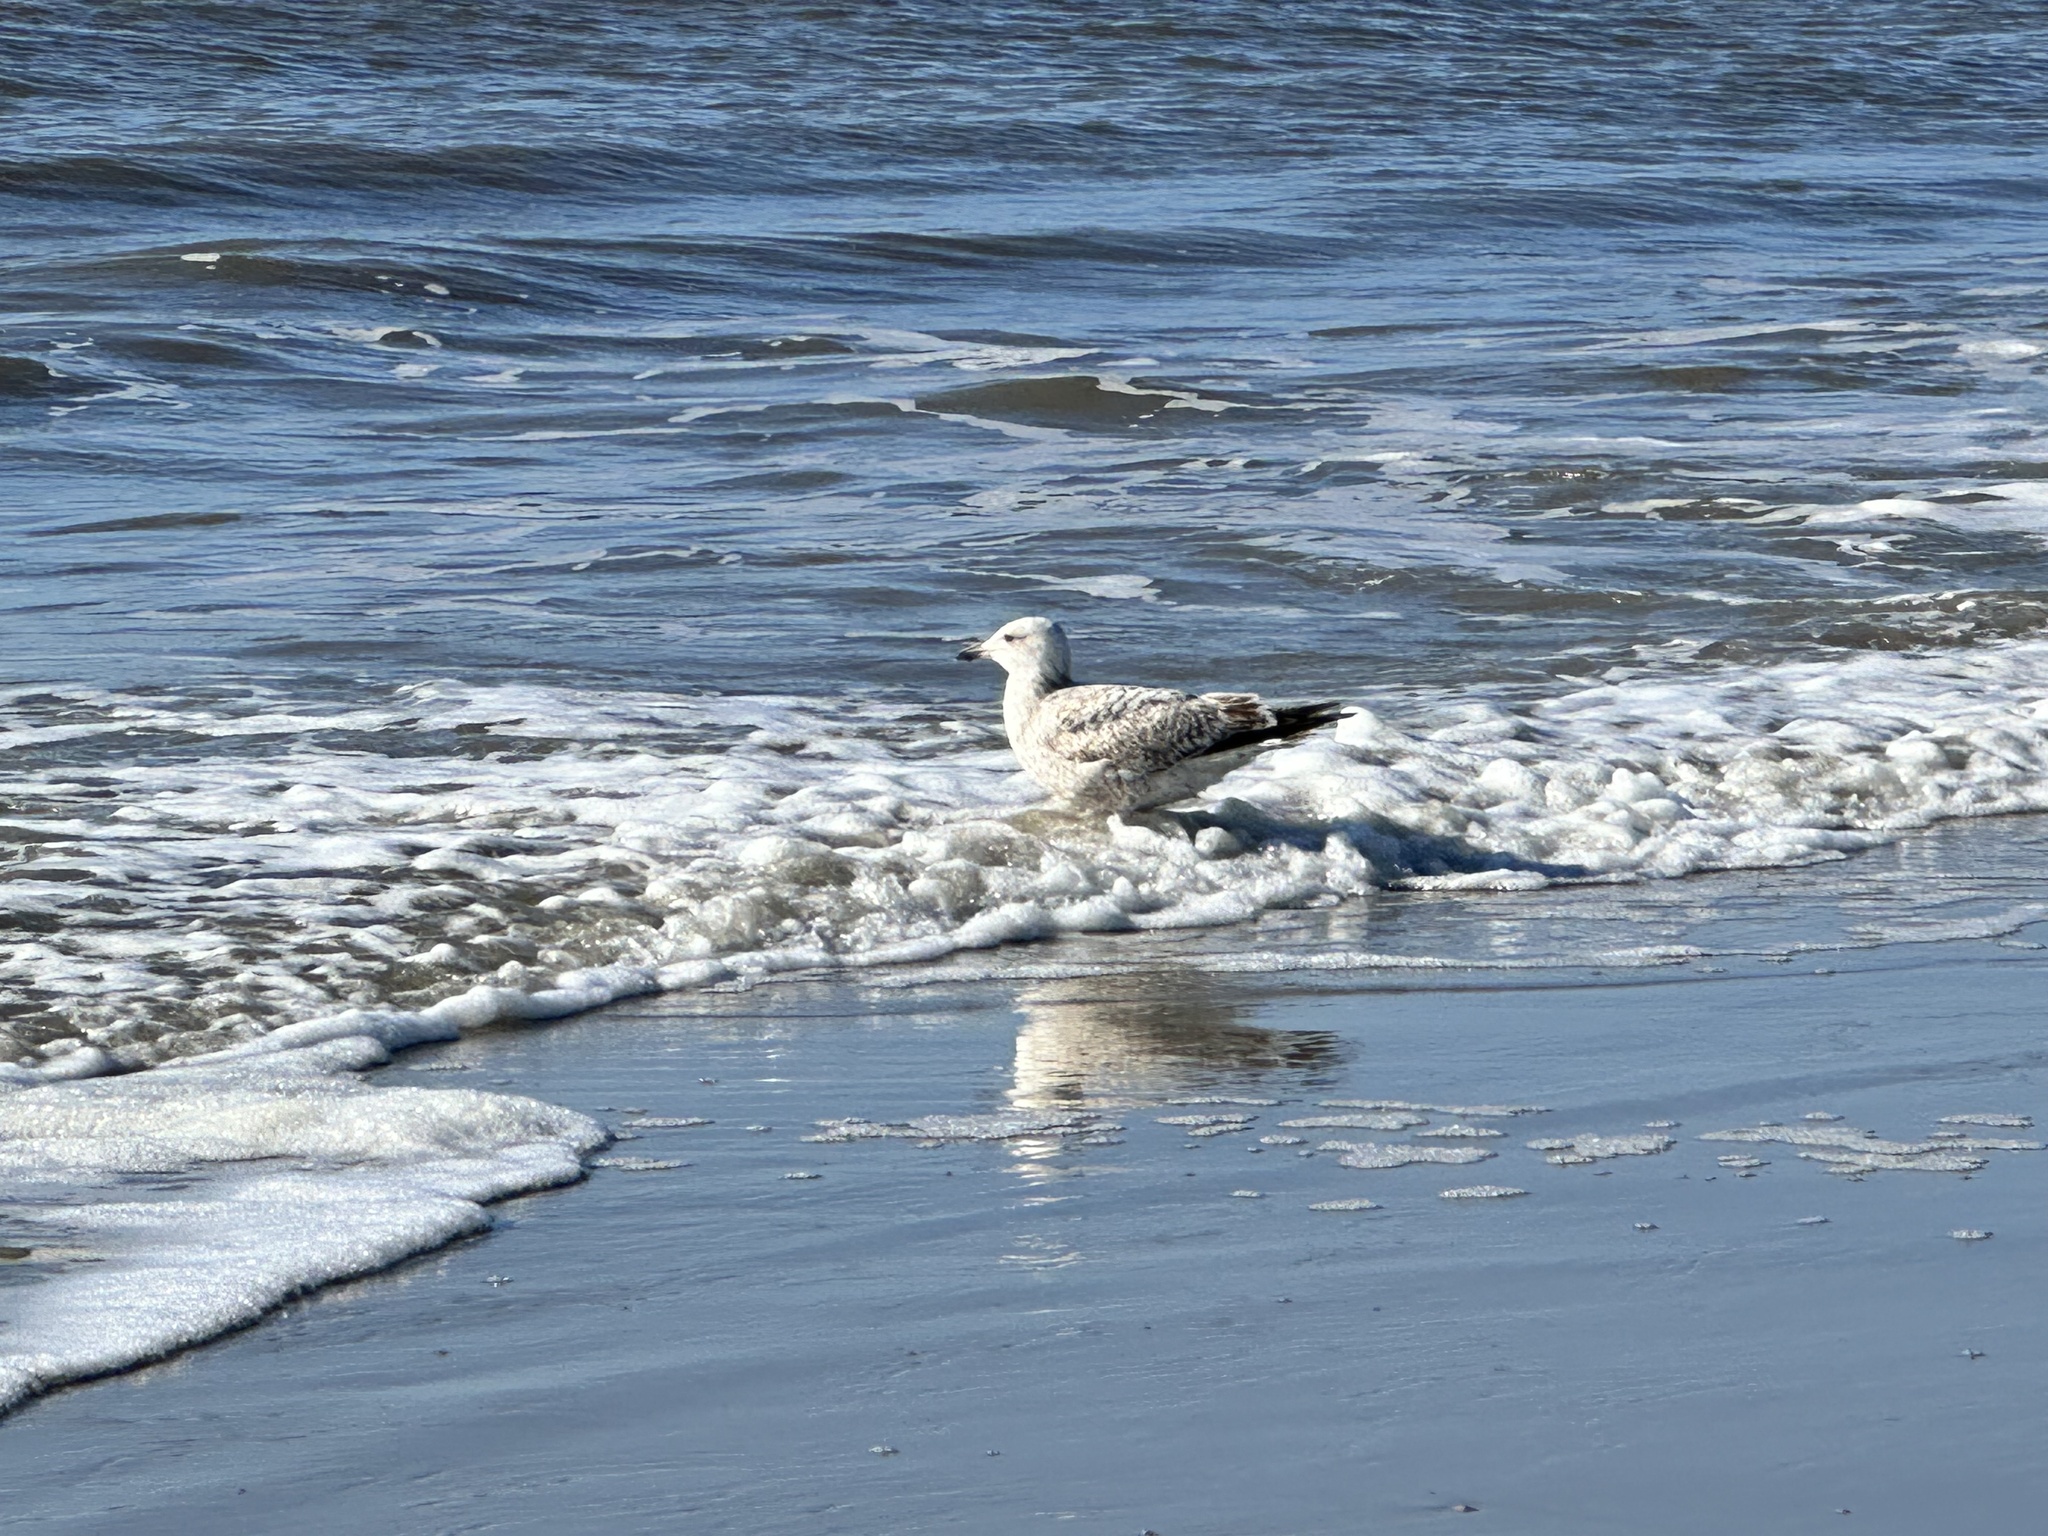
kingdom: Animalia
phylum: Chordata
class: Aves
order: Charadriiformes
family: Laridae
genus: Larus
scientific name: Larus argentatus
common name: Herring gull
